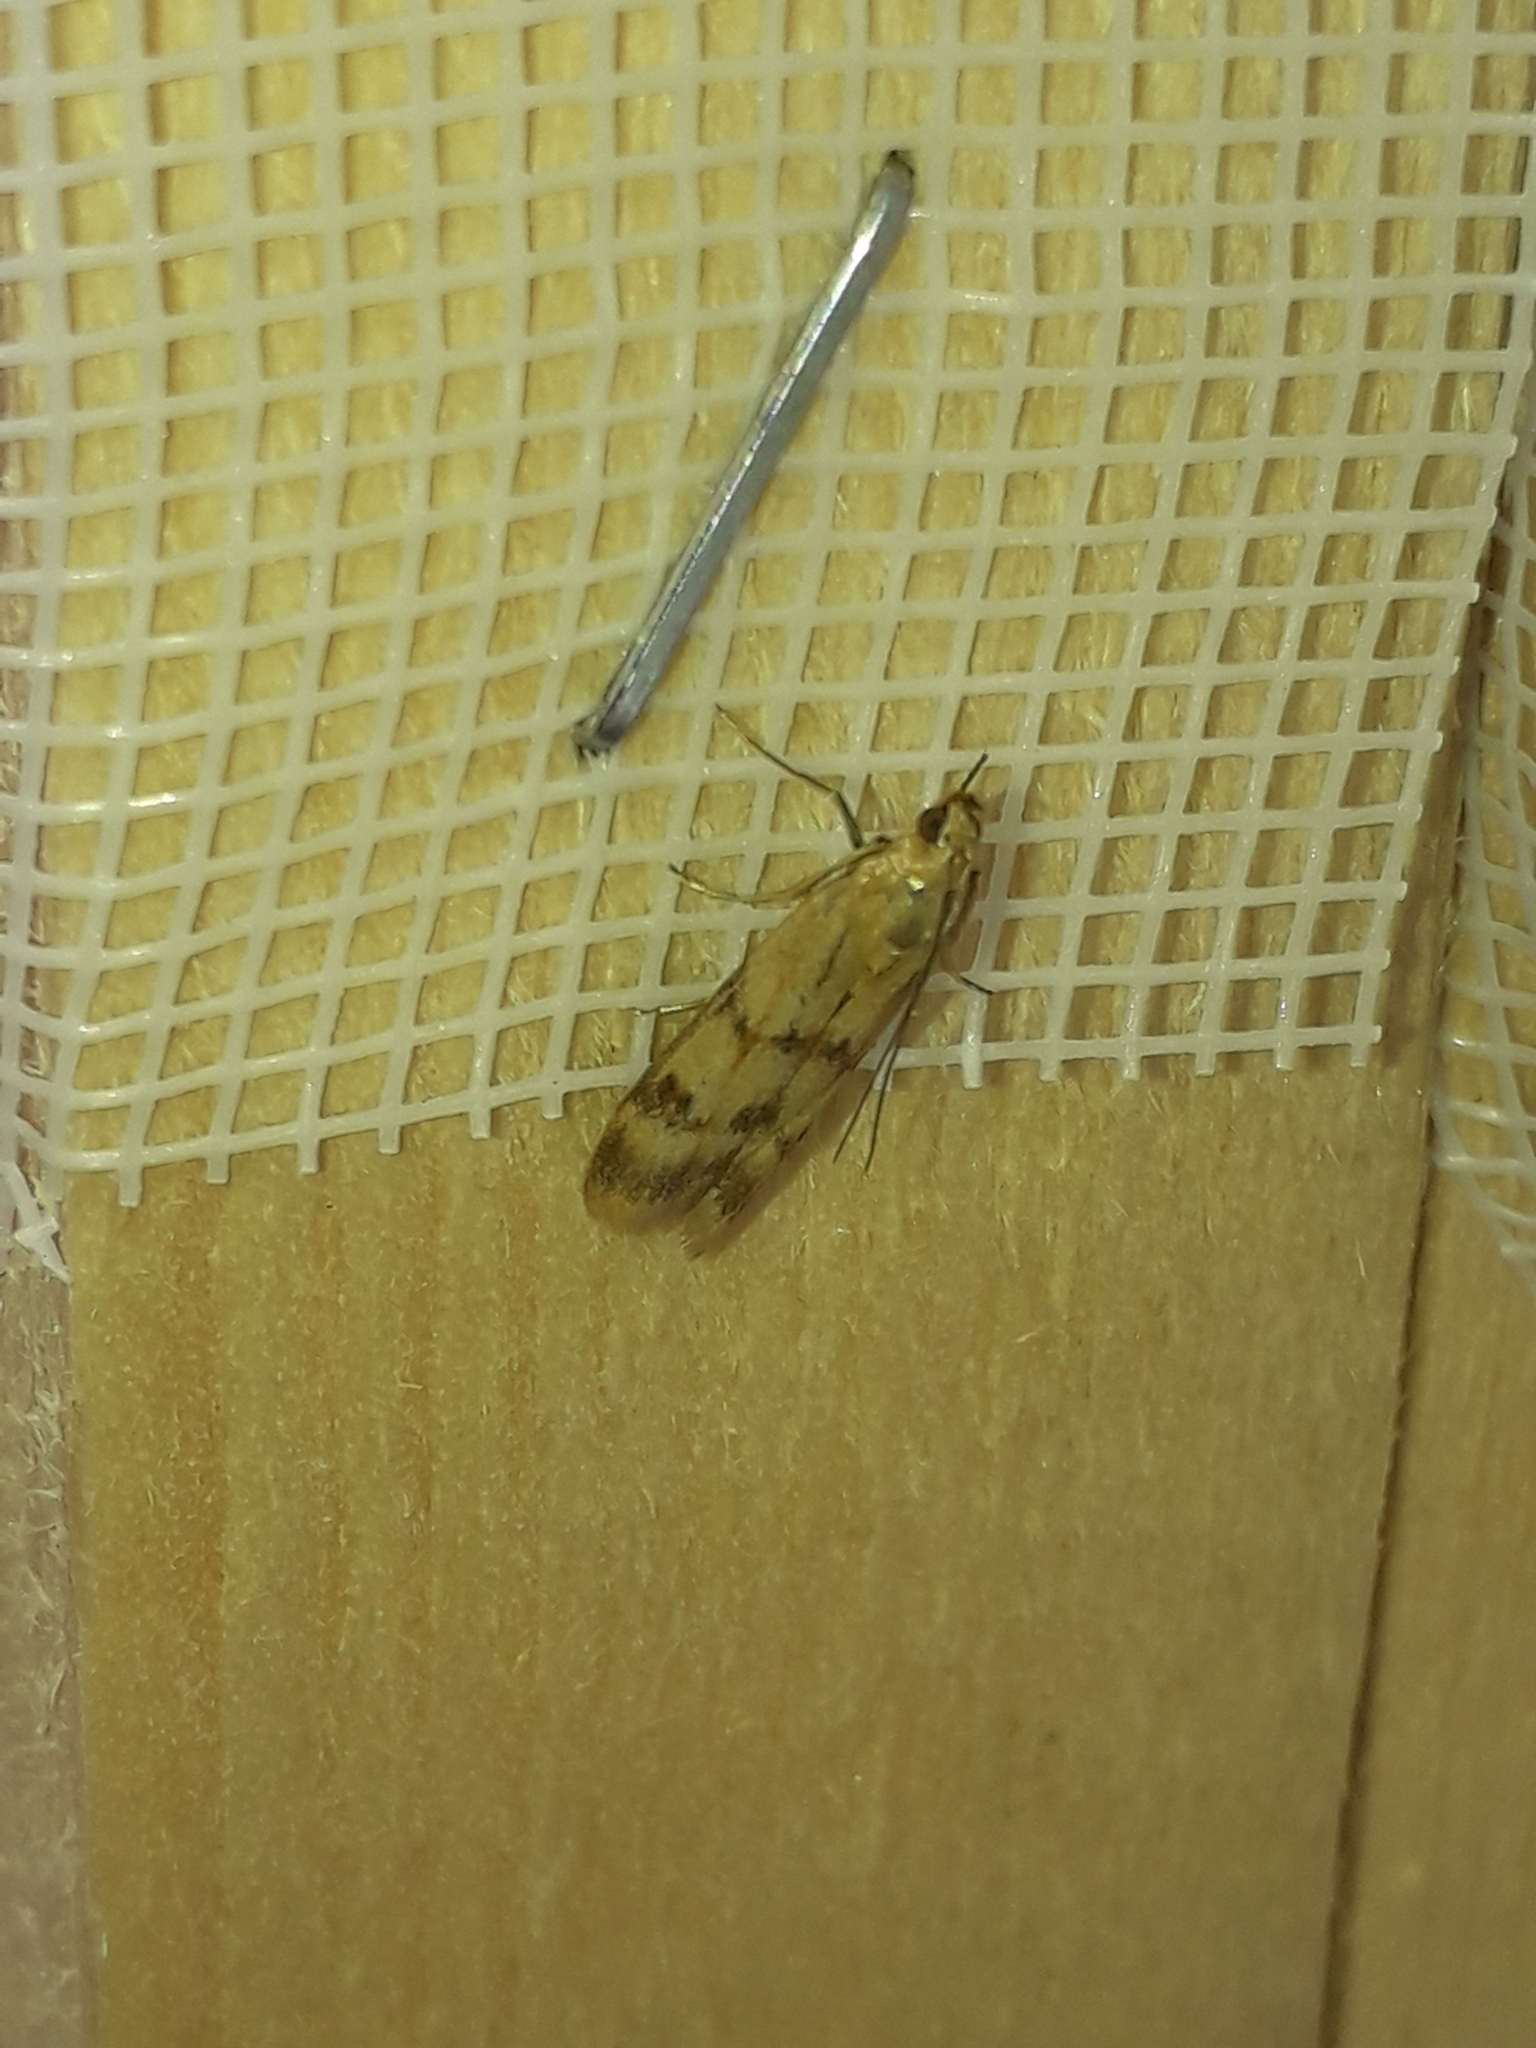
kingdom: Animalia
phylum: Arthropoda
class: Insecta
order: Lepidoptera
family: Pyralidae
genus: Homoeosoma
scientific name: Homoeosoma sinuella
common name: Twin-barred knot-horn
